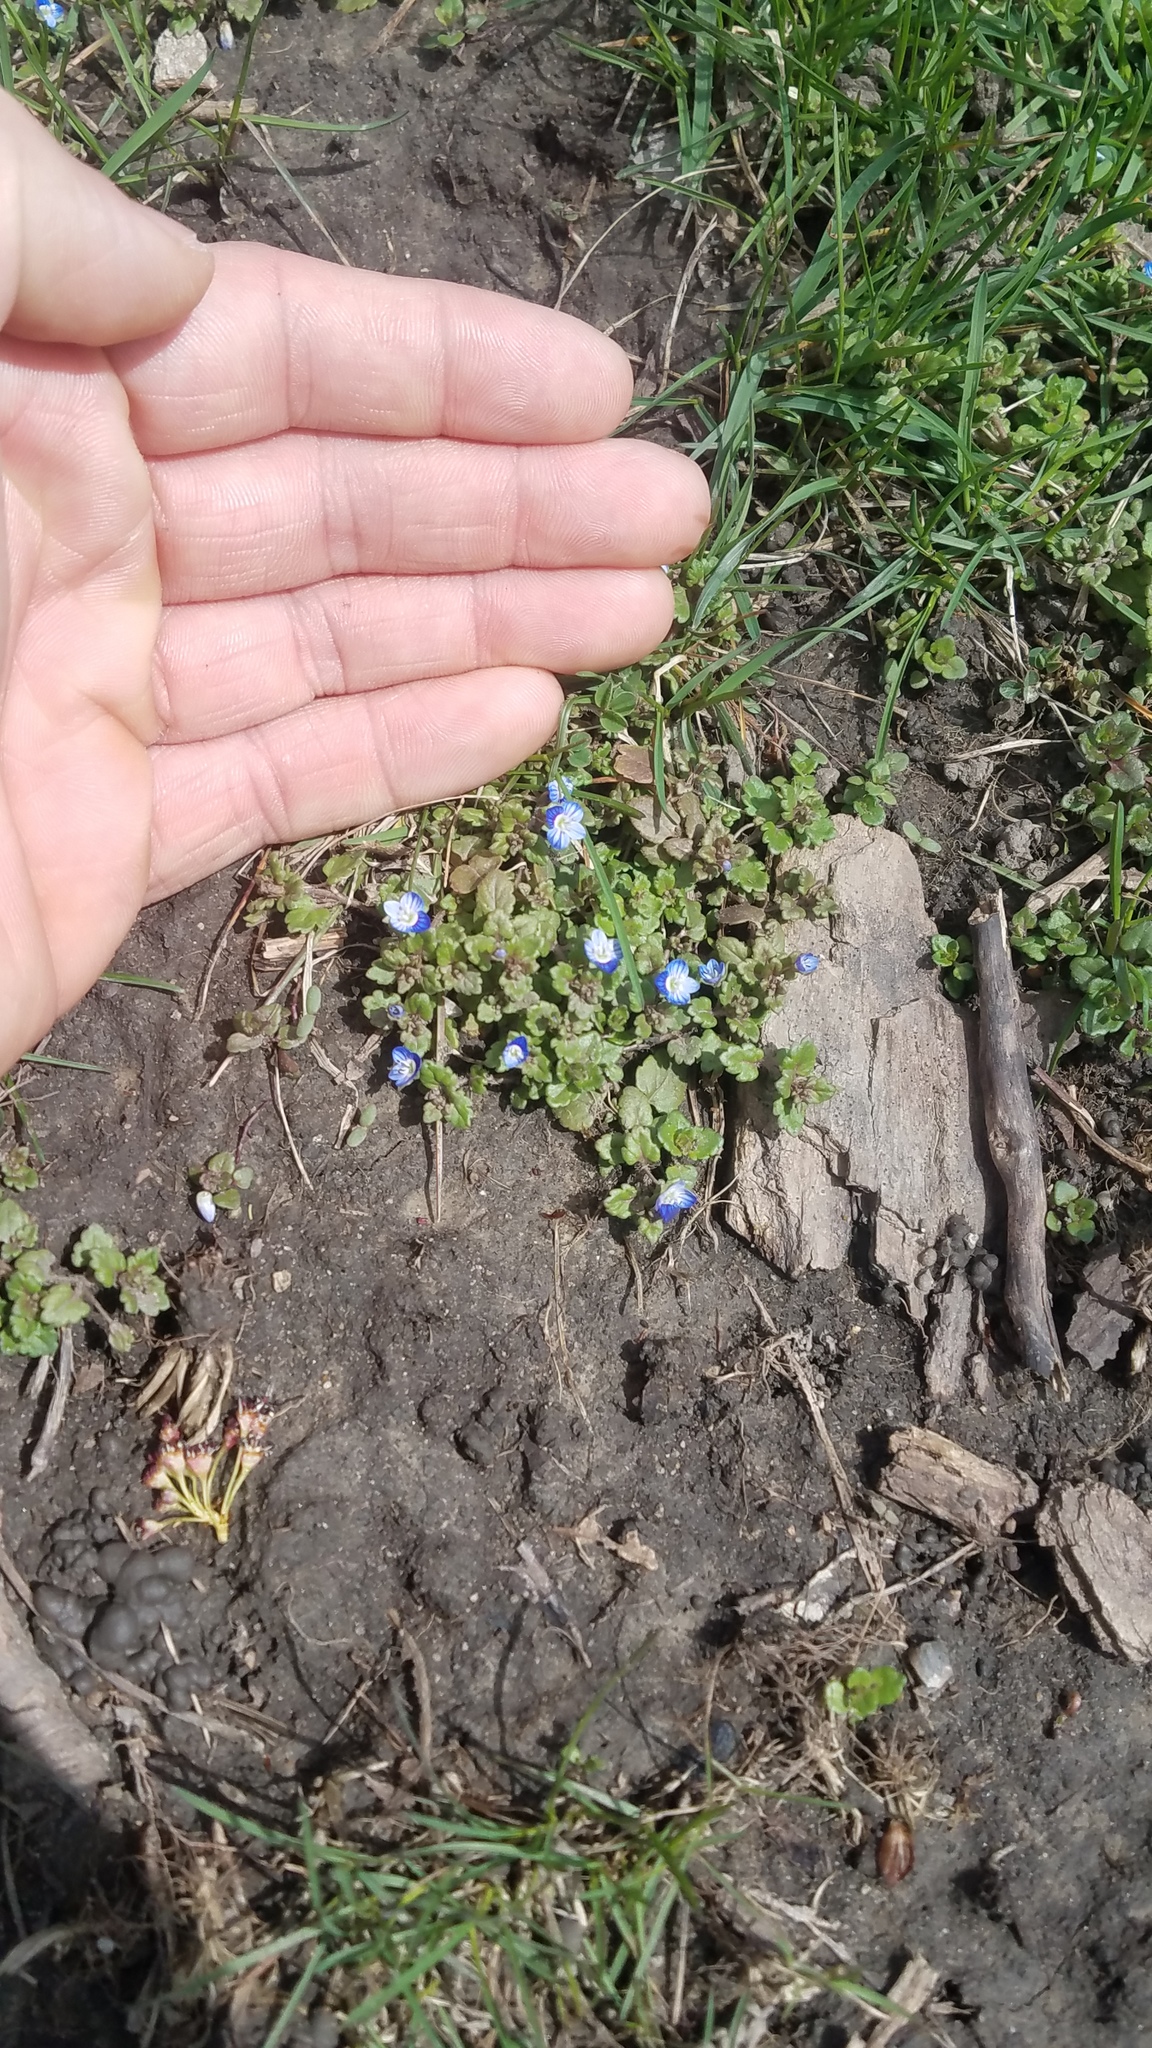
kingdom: Plantae
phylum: Tracheophyta
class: Magnoliopsida
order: Lamiales
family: Plantaginaceae
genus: Veronica
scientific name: Veronica polita
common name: Grey field-speedwell
